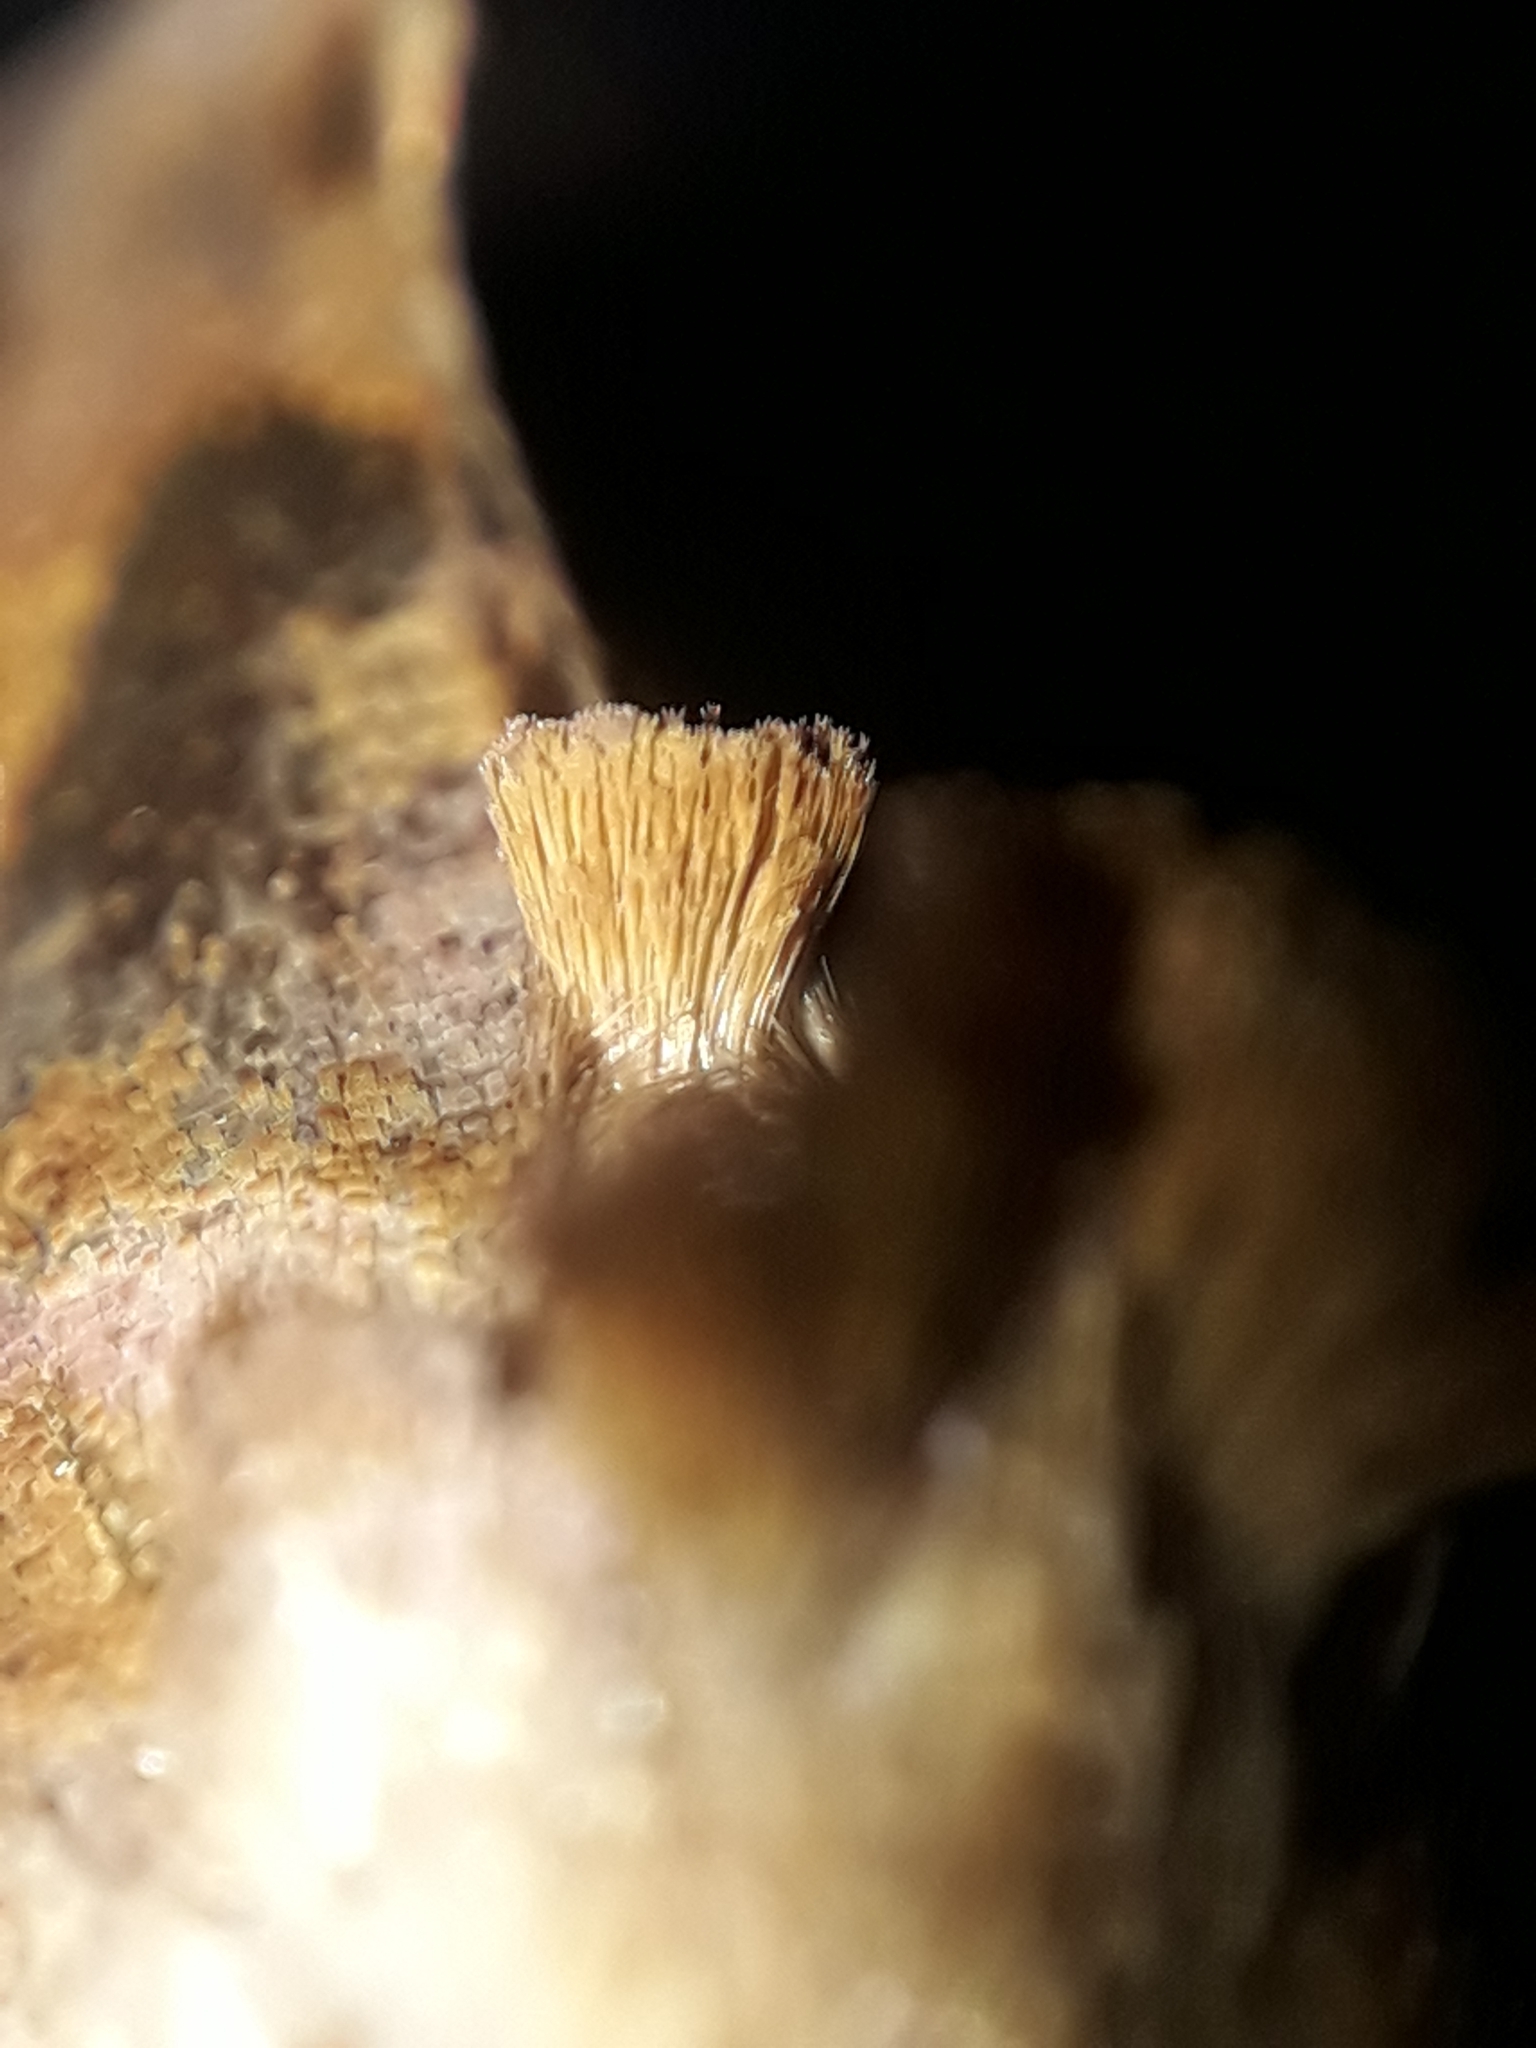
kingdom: Animalia
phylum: Arthropoda
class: Insecta
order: Lepidoptera
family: Noctuidae
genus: Chrysodeixis
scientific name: Chrysodeixis chalcites
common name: Golden twin-spot
